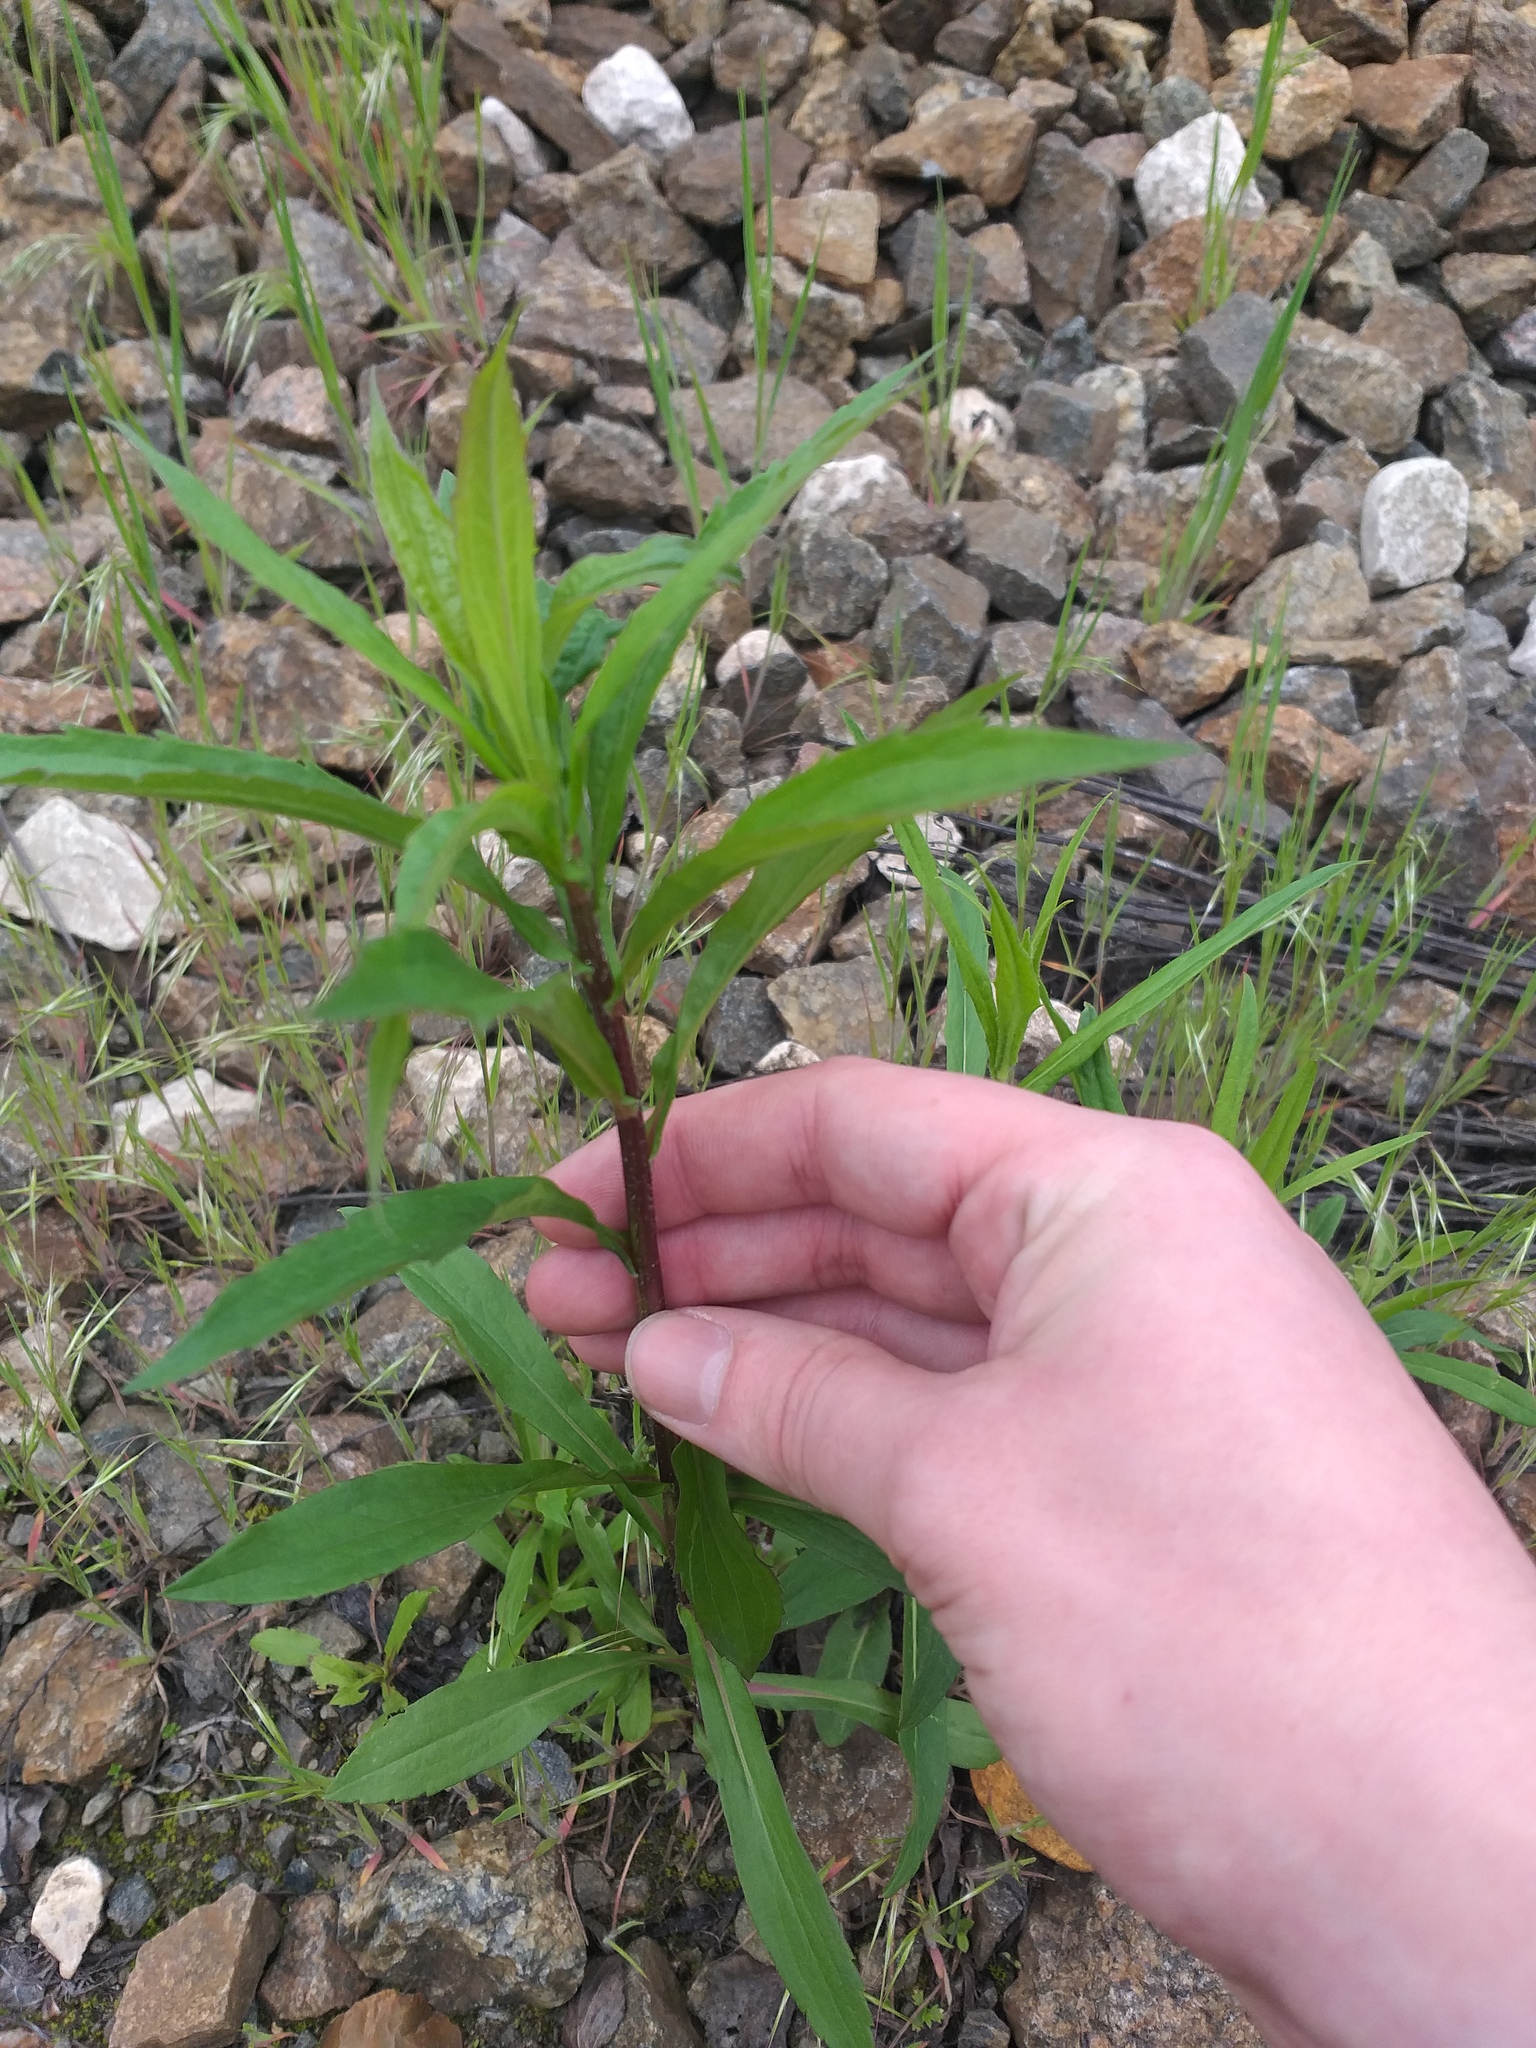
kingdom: Plantae
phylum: Tracheophyta
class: Magnoliopsida
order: Asterales
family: Asteraceae
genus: Solidago
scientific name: Solidago canadensis
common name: Canada goldenrod
